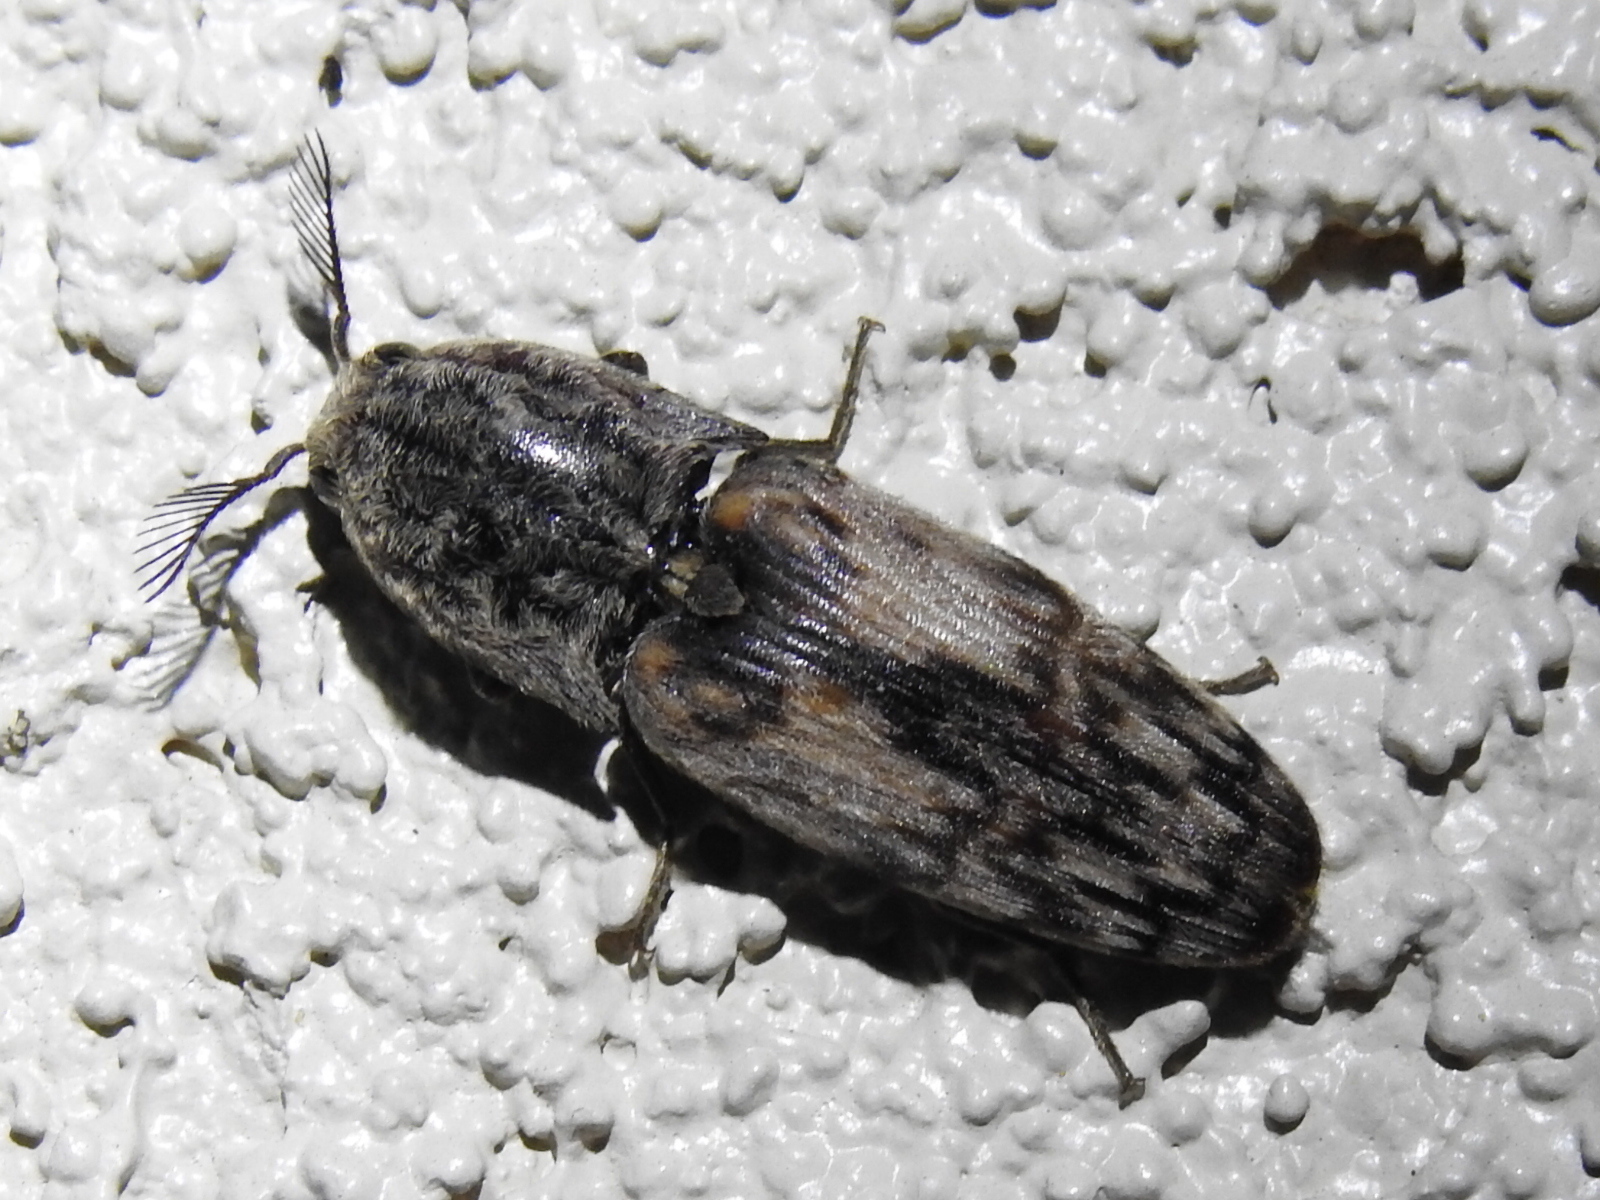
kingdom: Animalia
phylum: Arthropoda
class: Insecta
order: Coleoptera
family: Elateridae
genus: Pherhimius
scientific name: Pherhimius fascicularis
